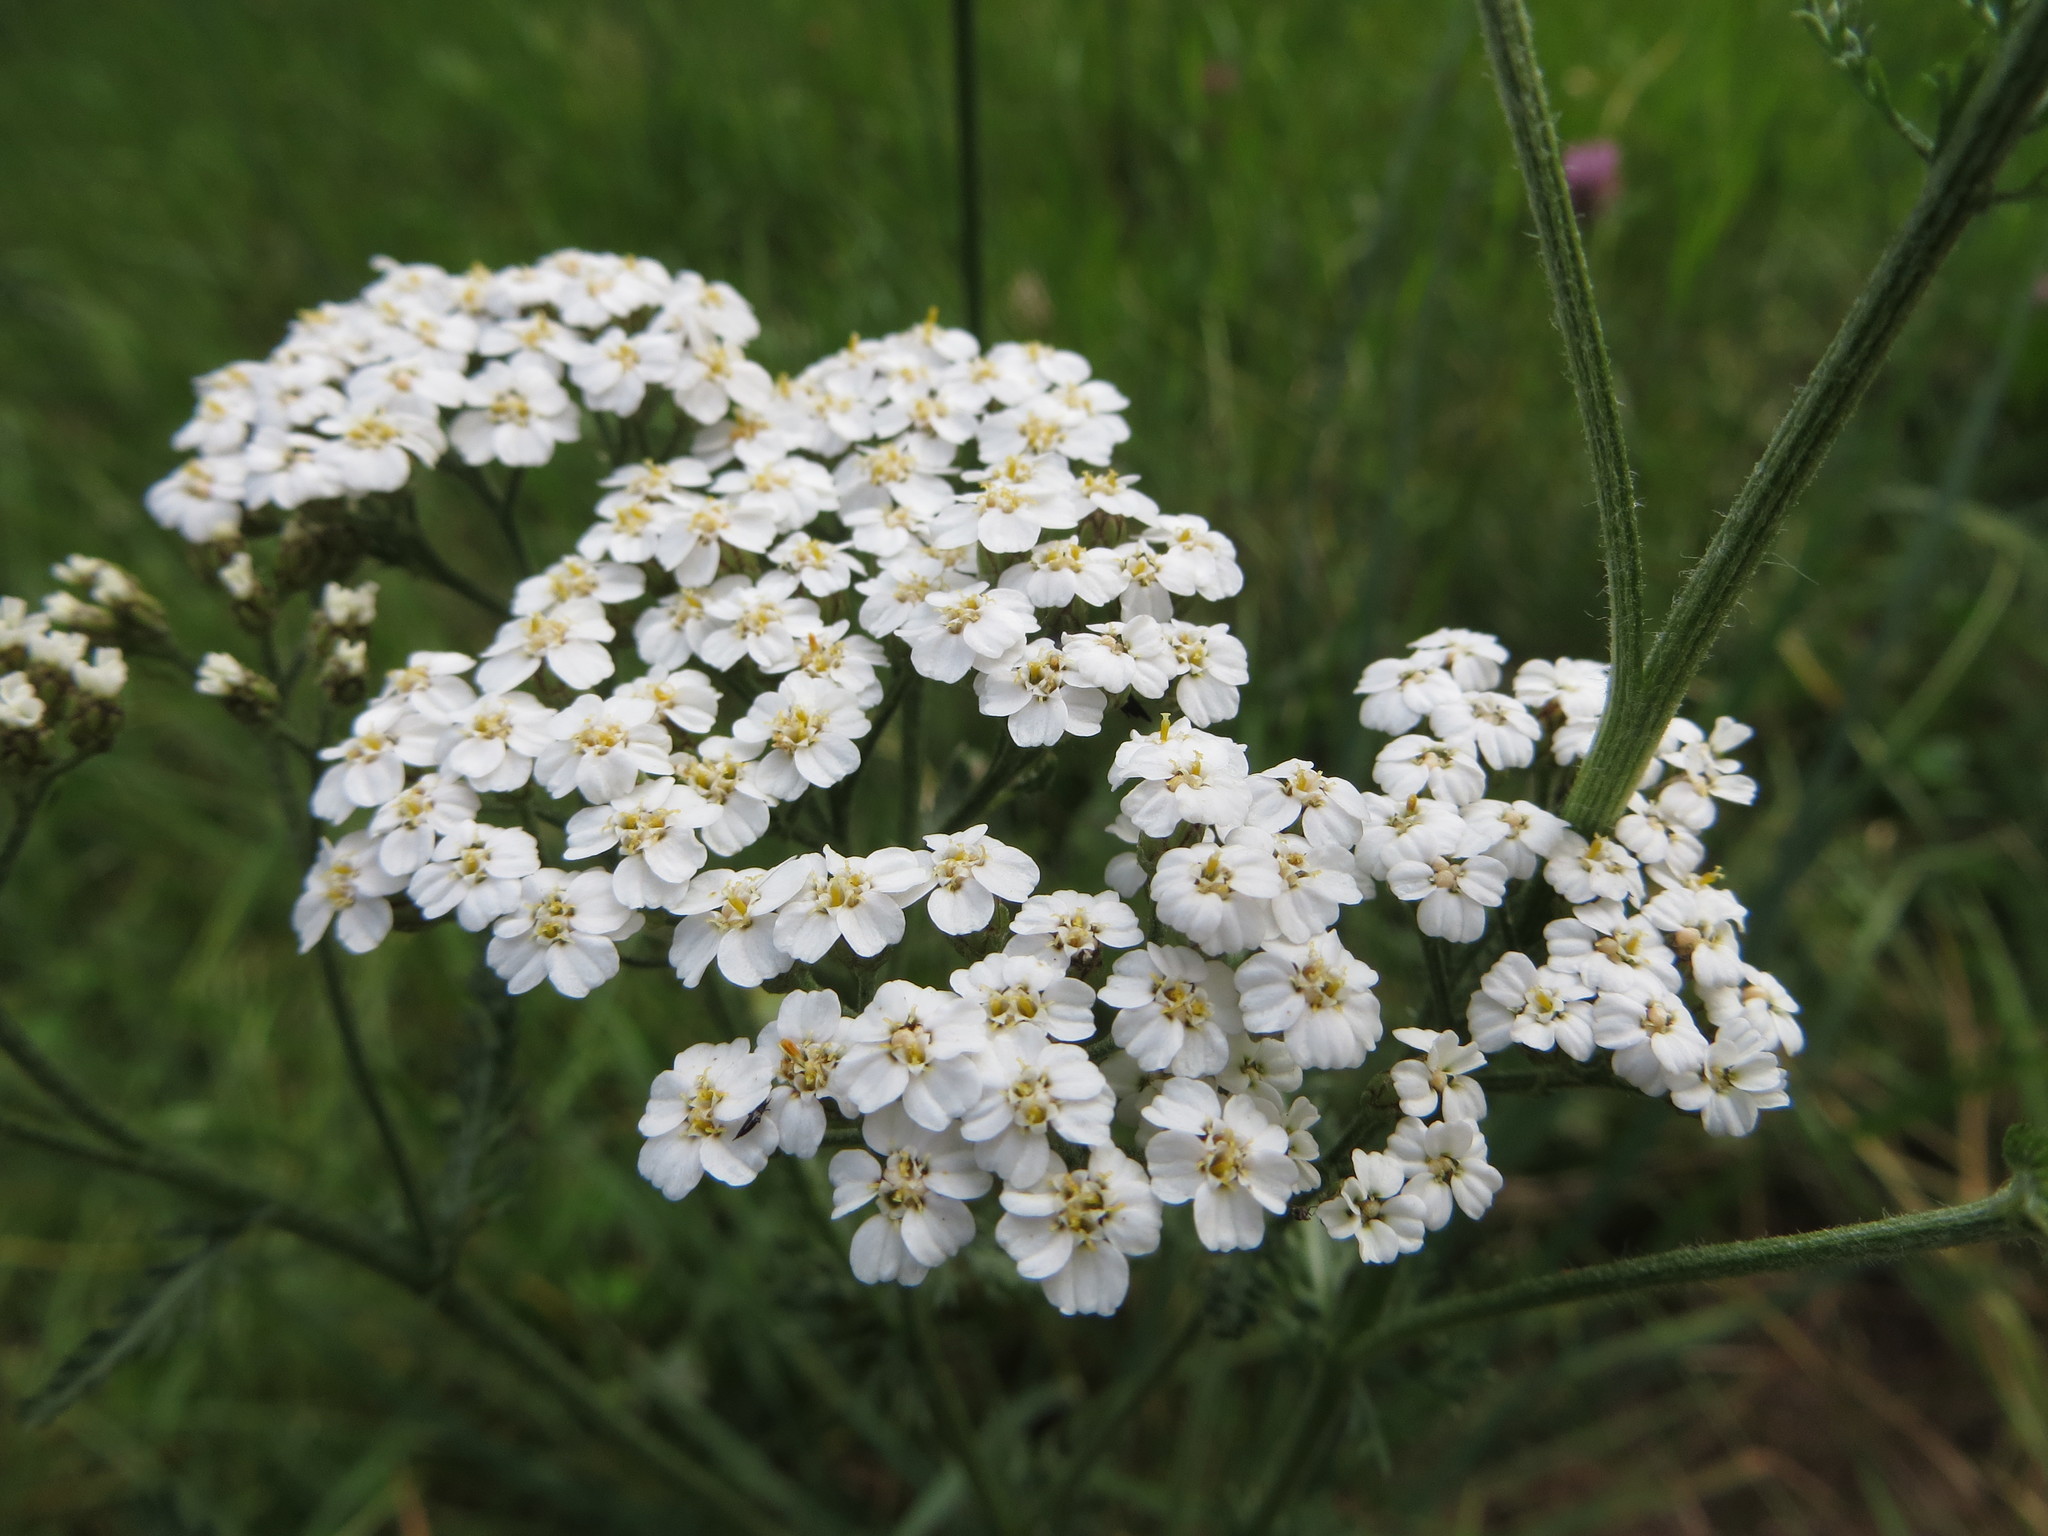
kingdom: Plantae
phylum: Tracheophyta
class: Magnoliopsida
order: Asterales
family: Asteraceae
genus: Achillea
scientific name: Achillea millefolium
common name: Yarrow
